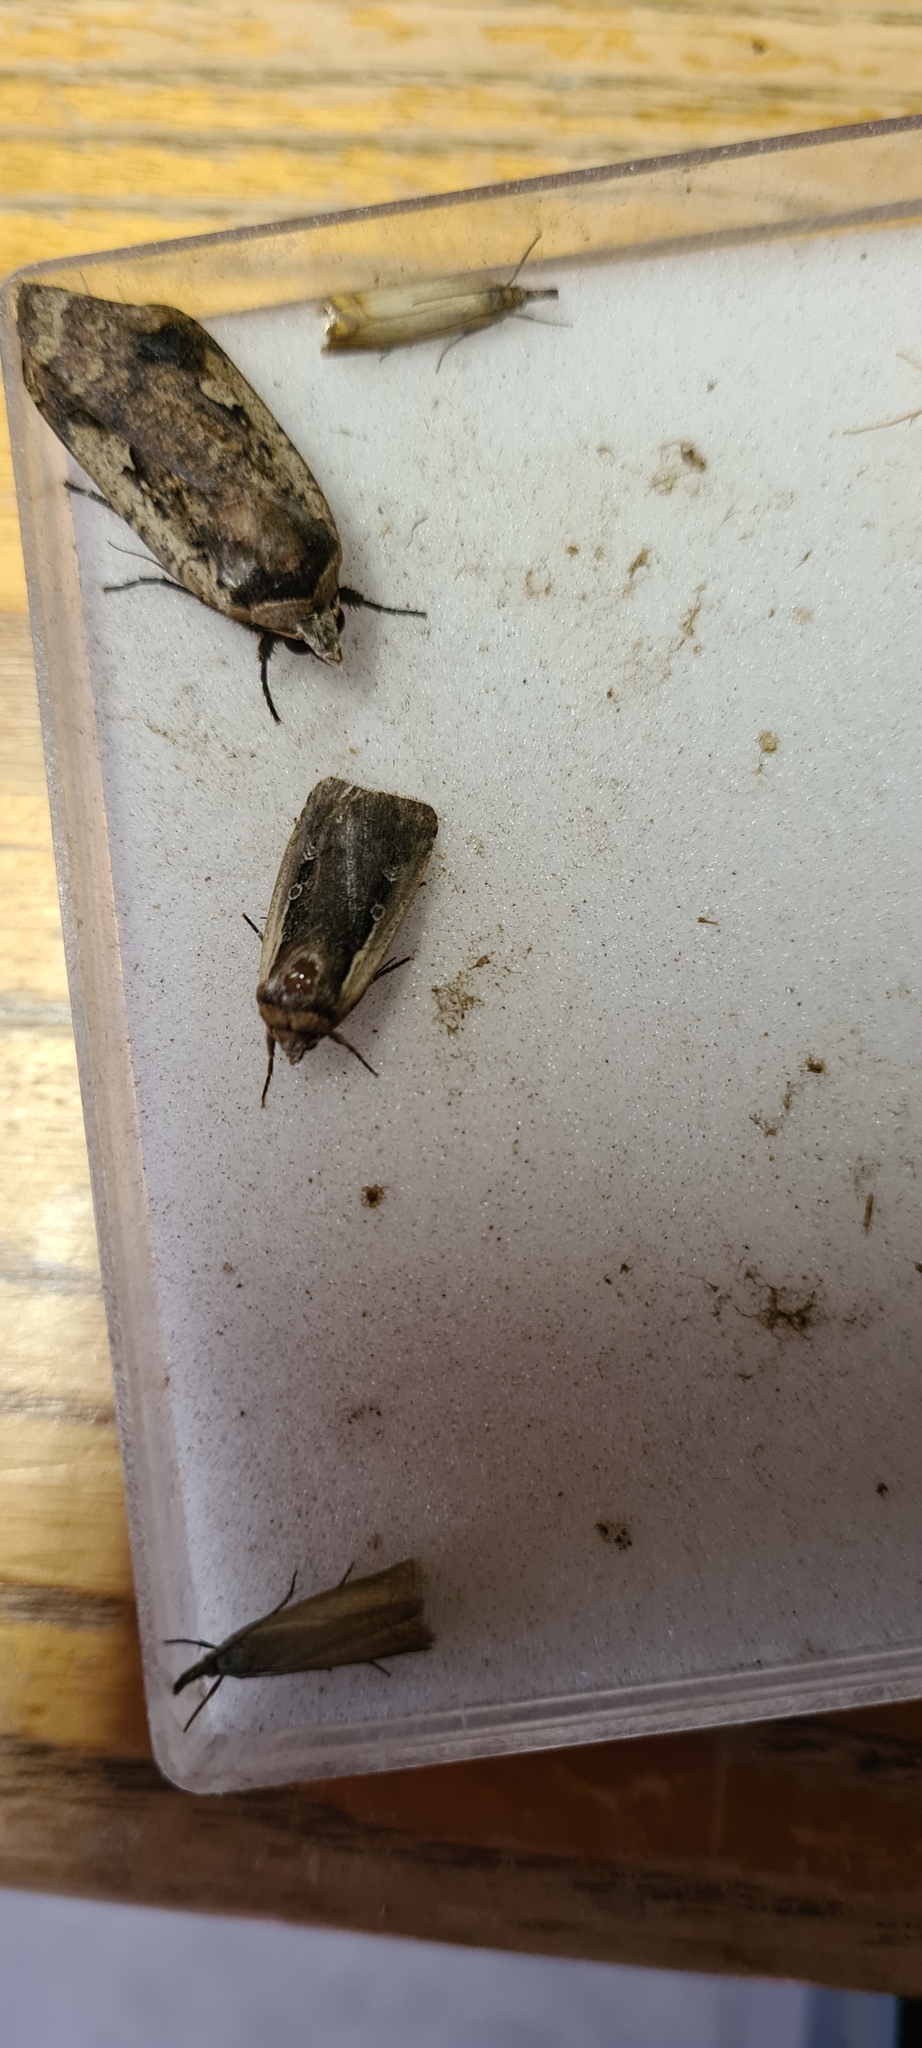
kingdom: Animalia
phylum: Arthropoda
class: Insecta
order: Lepidoptera
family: Noctuidae
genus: Ochropleura
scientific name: Ochropleura plecta
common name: Flame shoulder
